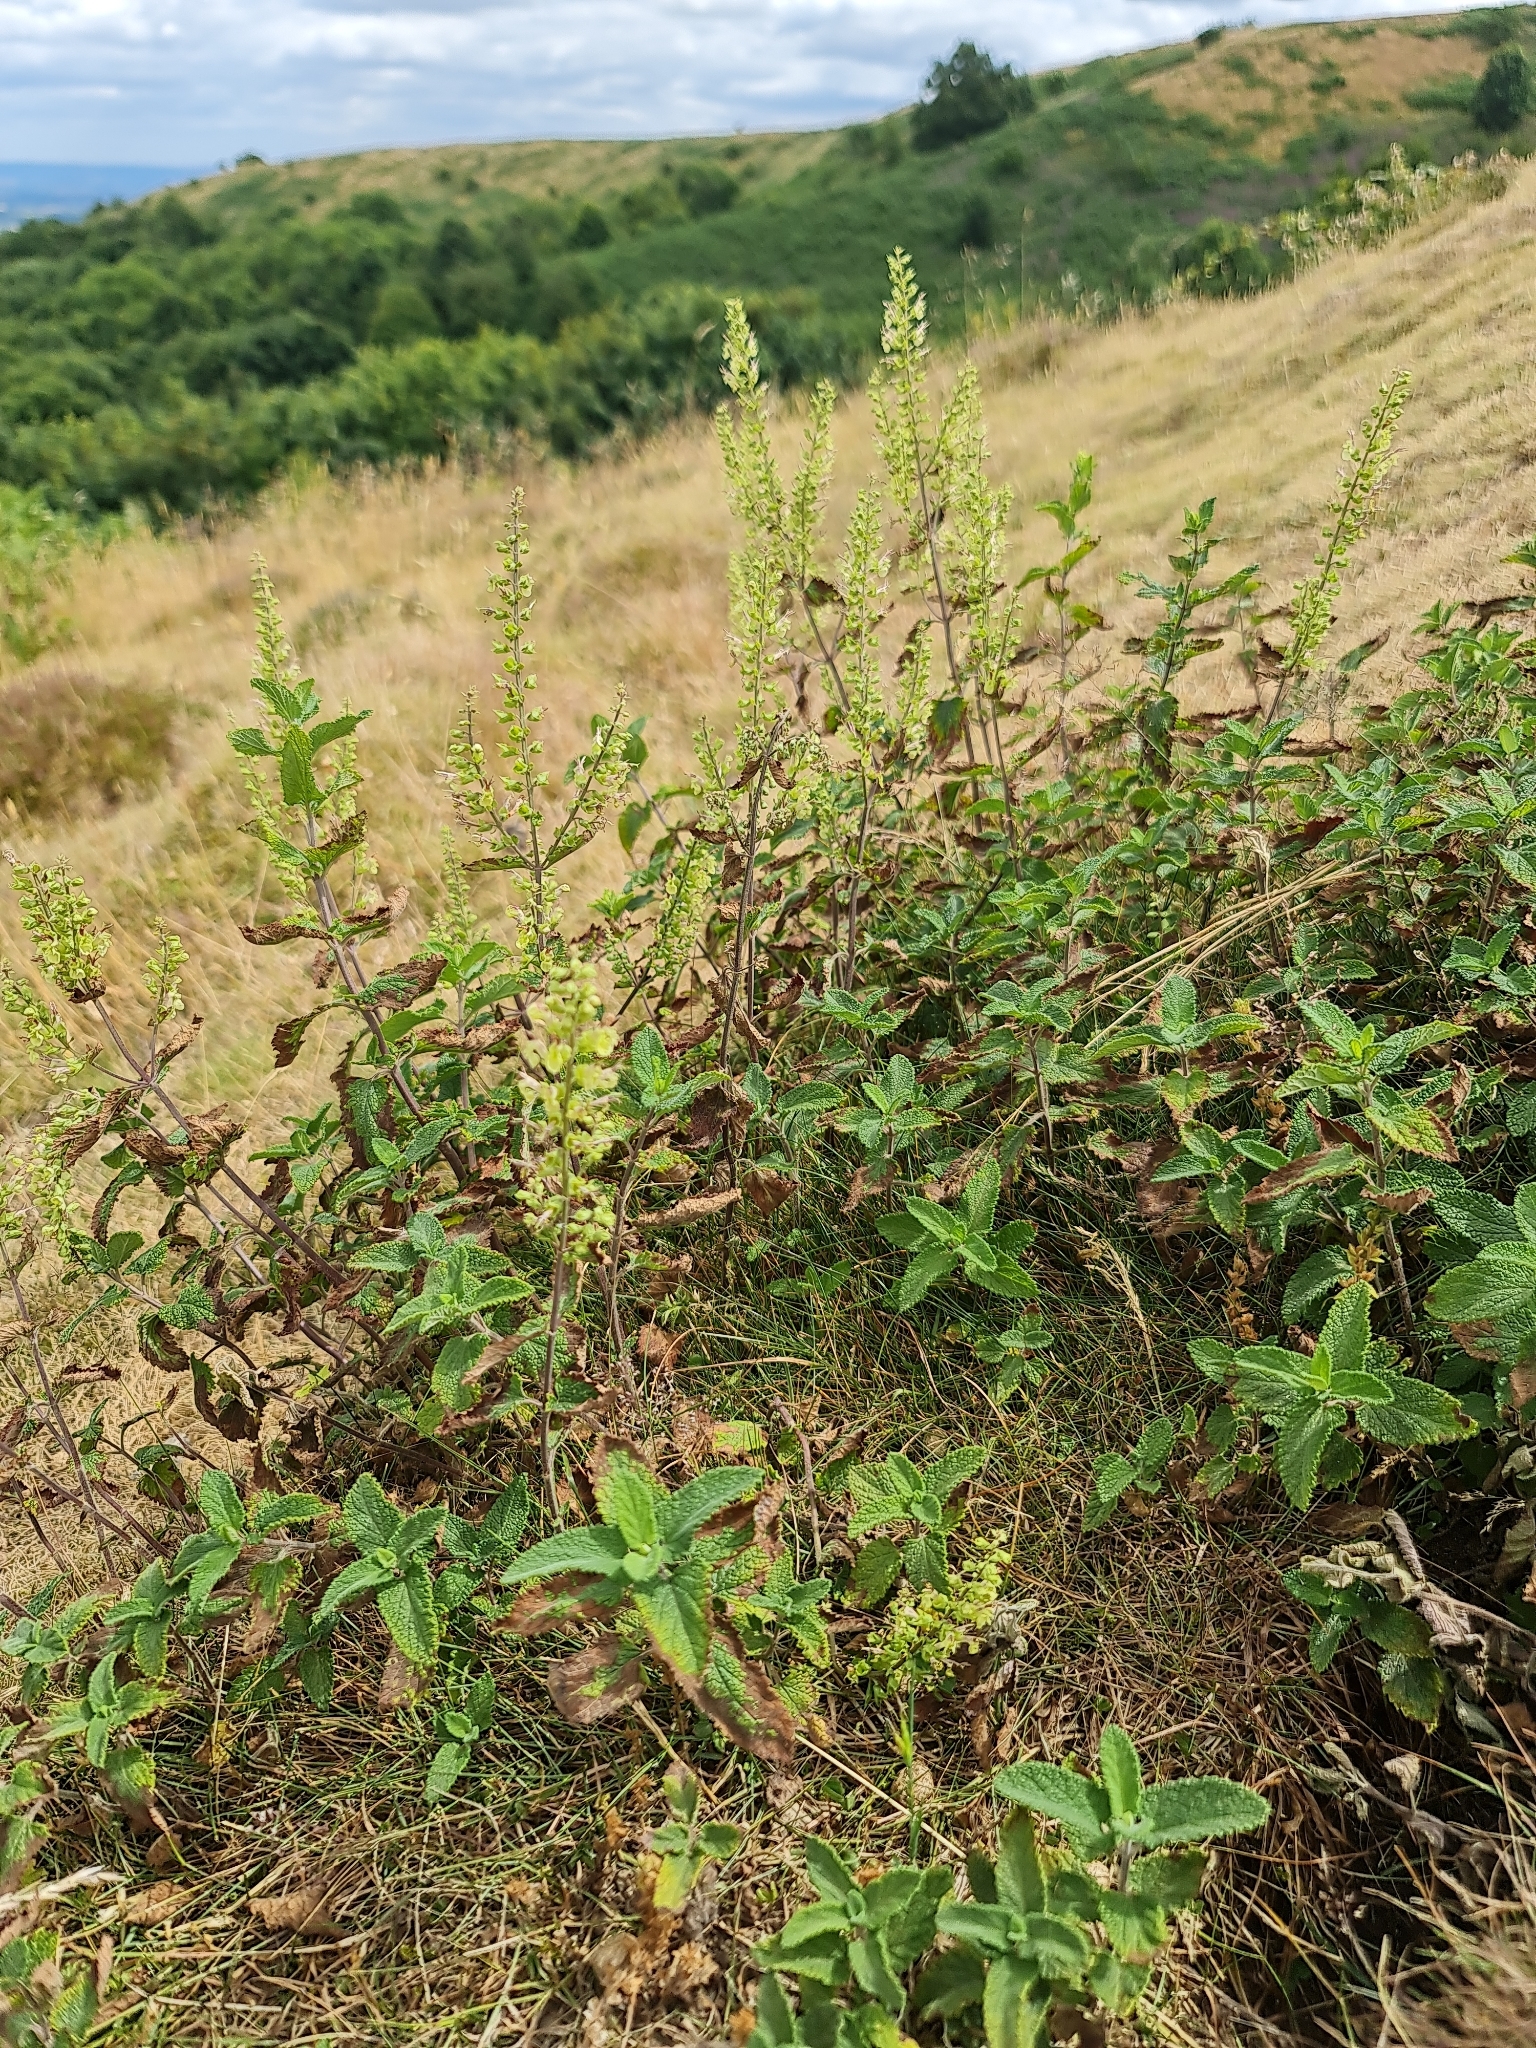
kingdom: Plantae
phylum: Tracheophyta
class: Magnoliopsida
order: Lamiales
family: Lamiaceae
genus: Teucrium
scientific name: Teucrium scorodonia
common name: Woodland germander
